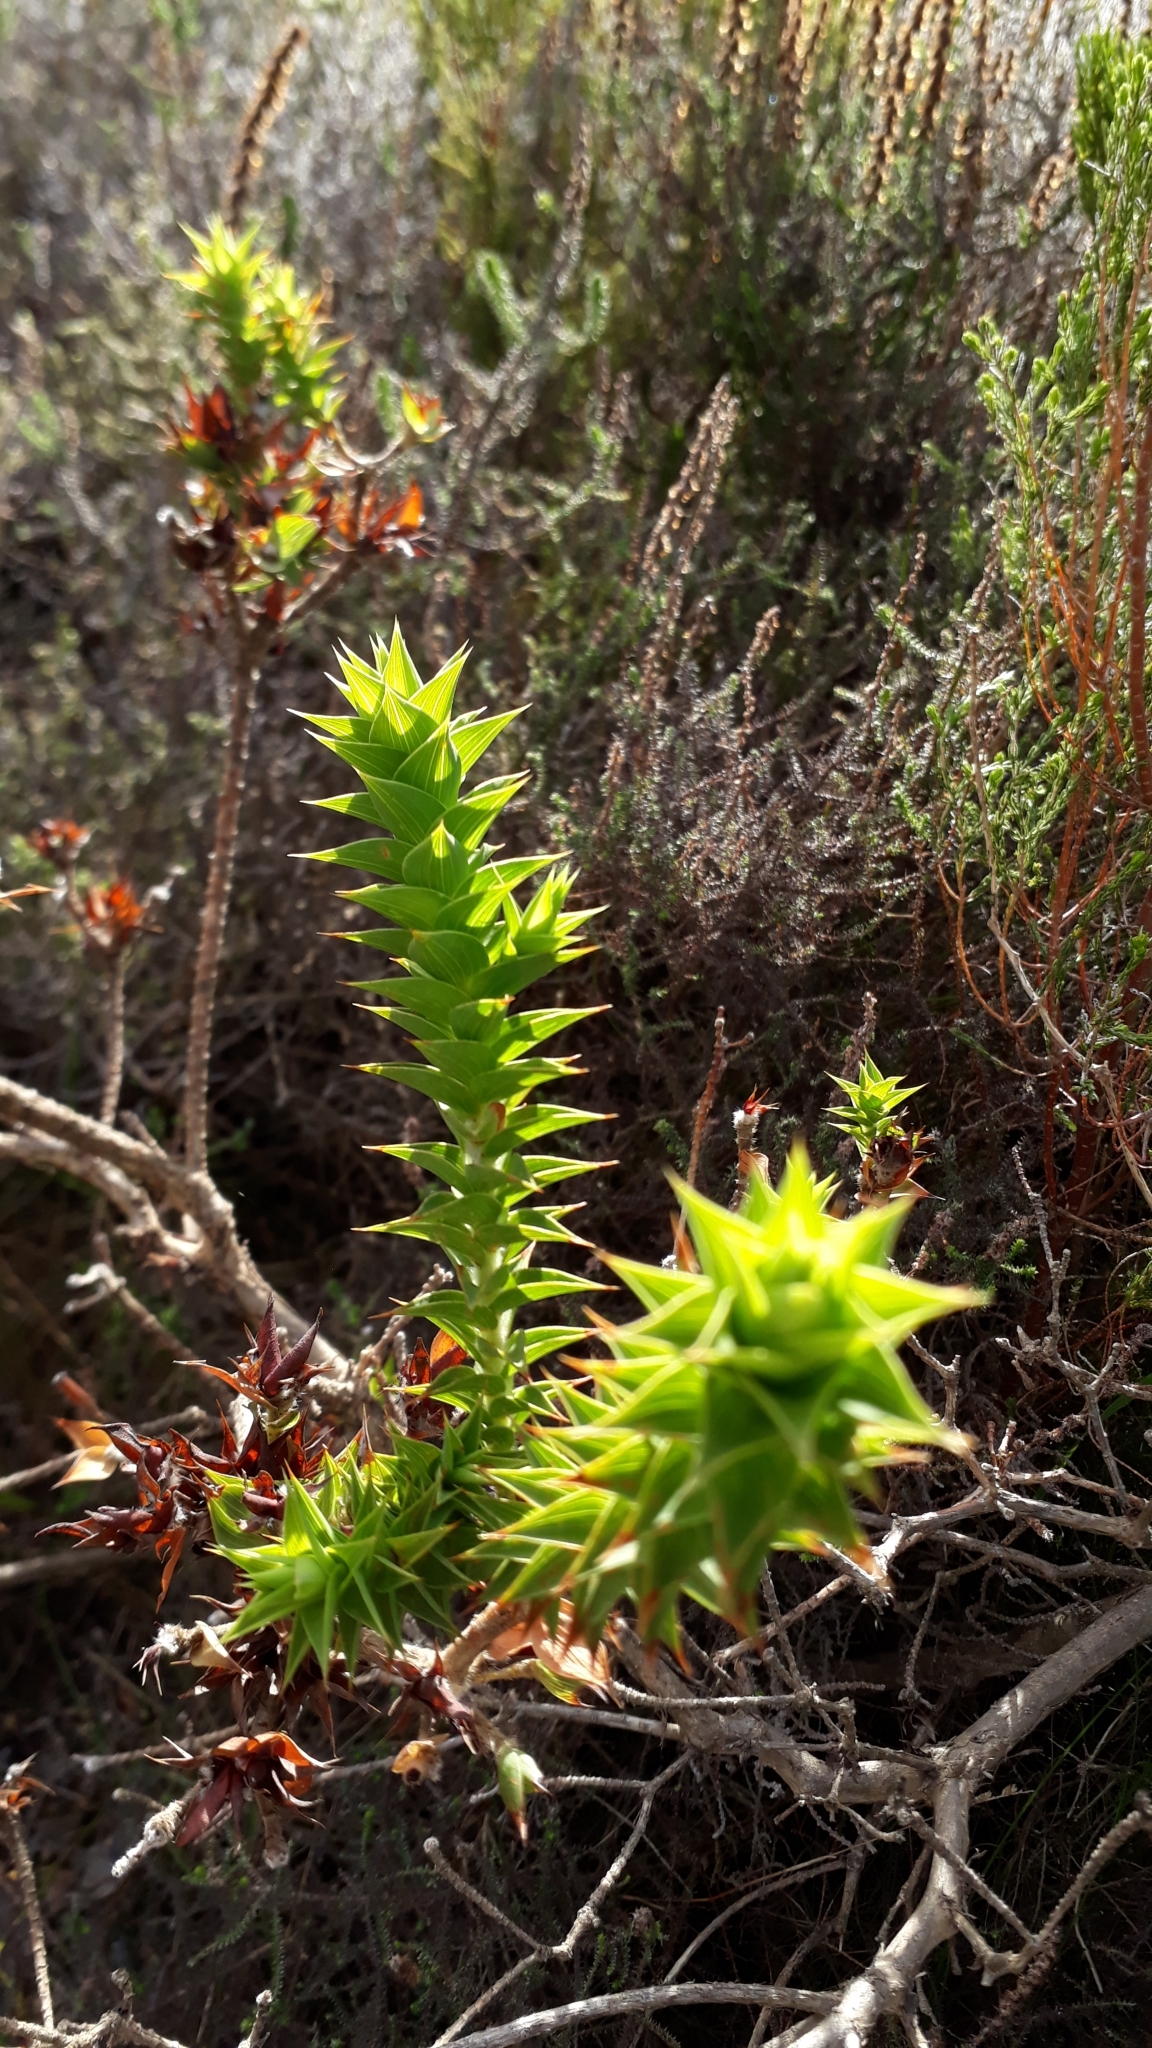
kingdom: Plantae
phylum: Tracheophyta
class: Magnoliopsida
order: Fabales
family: Fabaceae
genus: Aspalathus
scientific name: Aspalathus cordata
